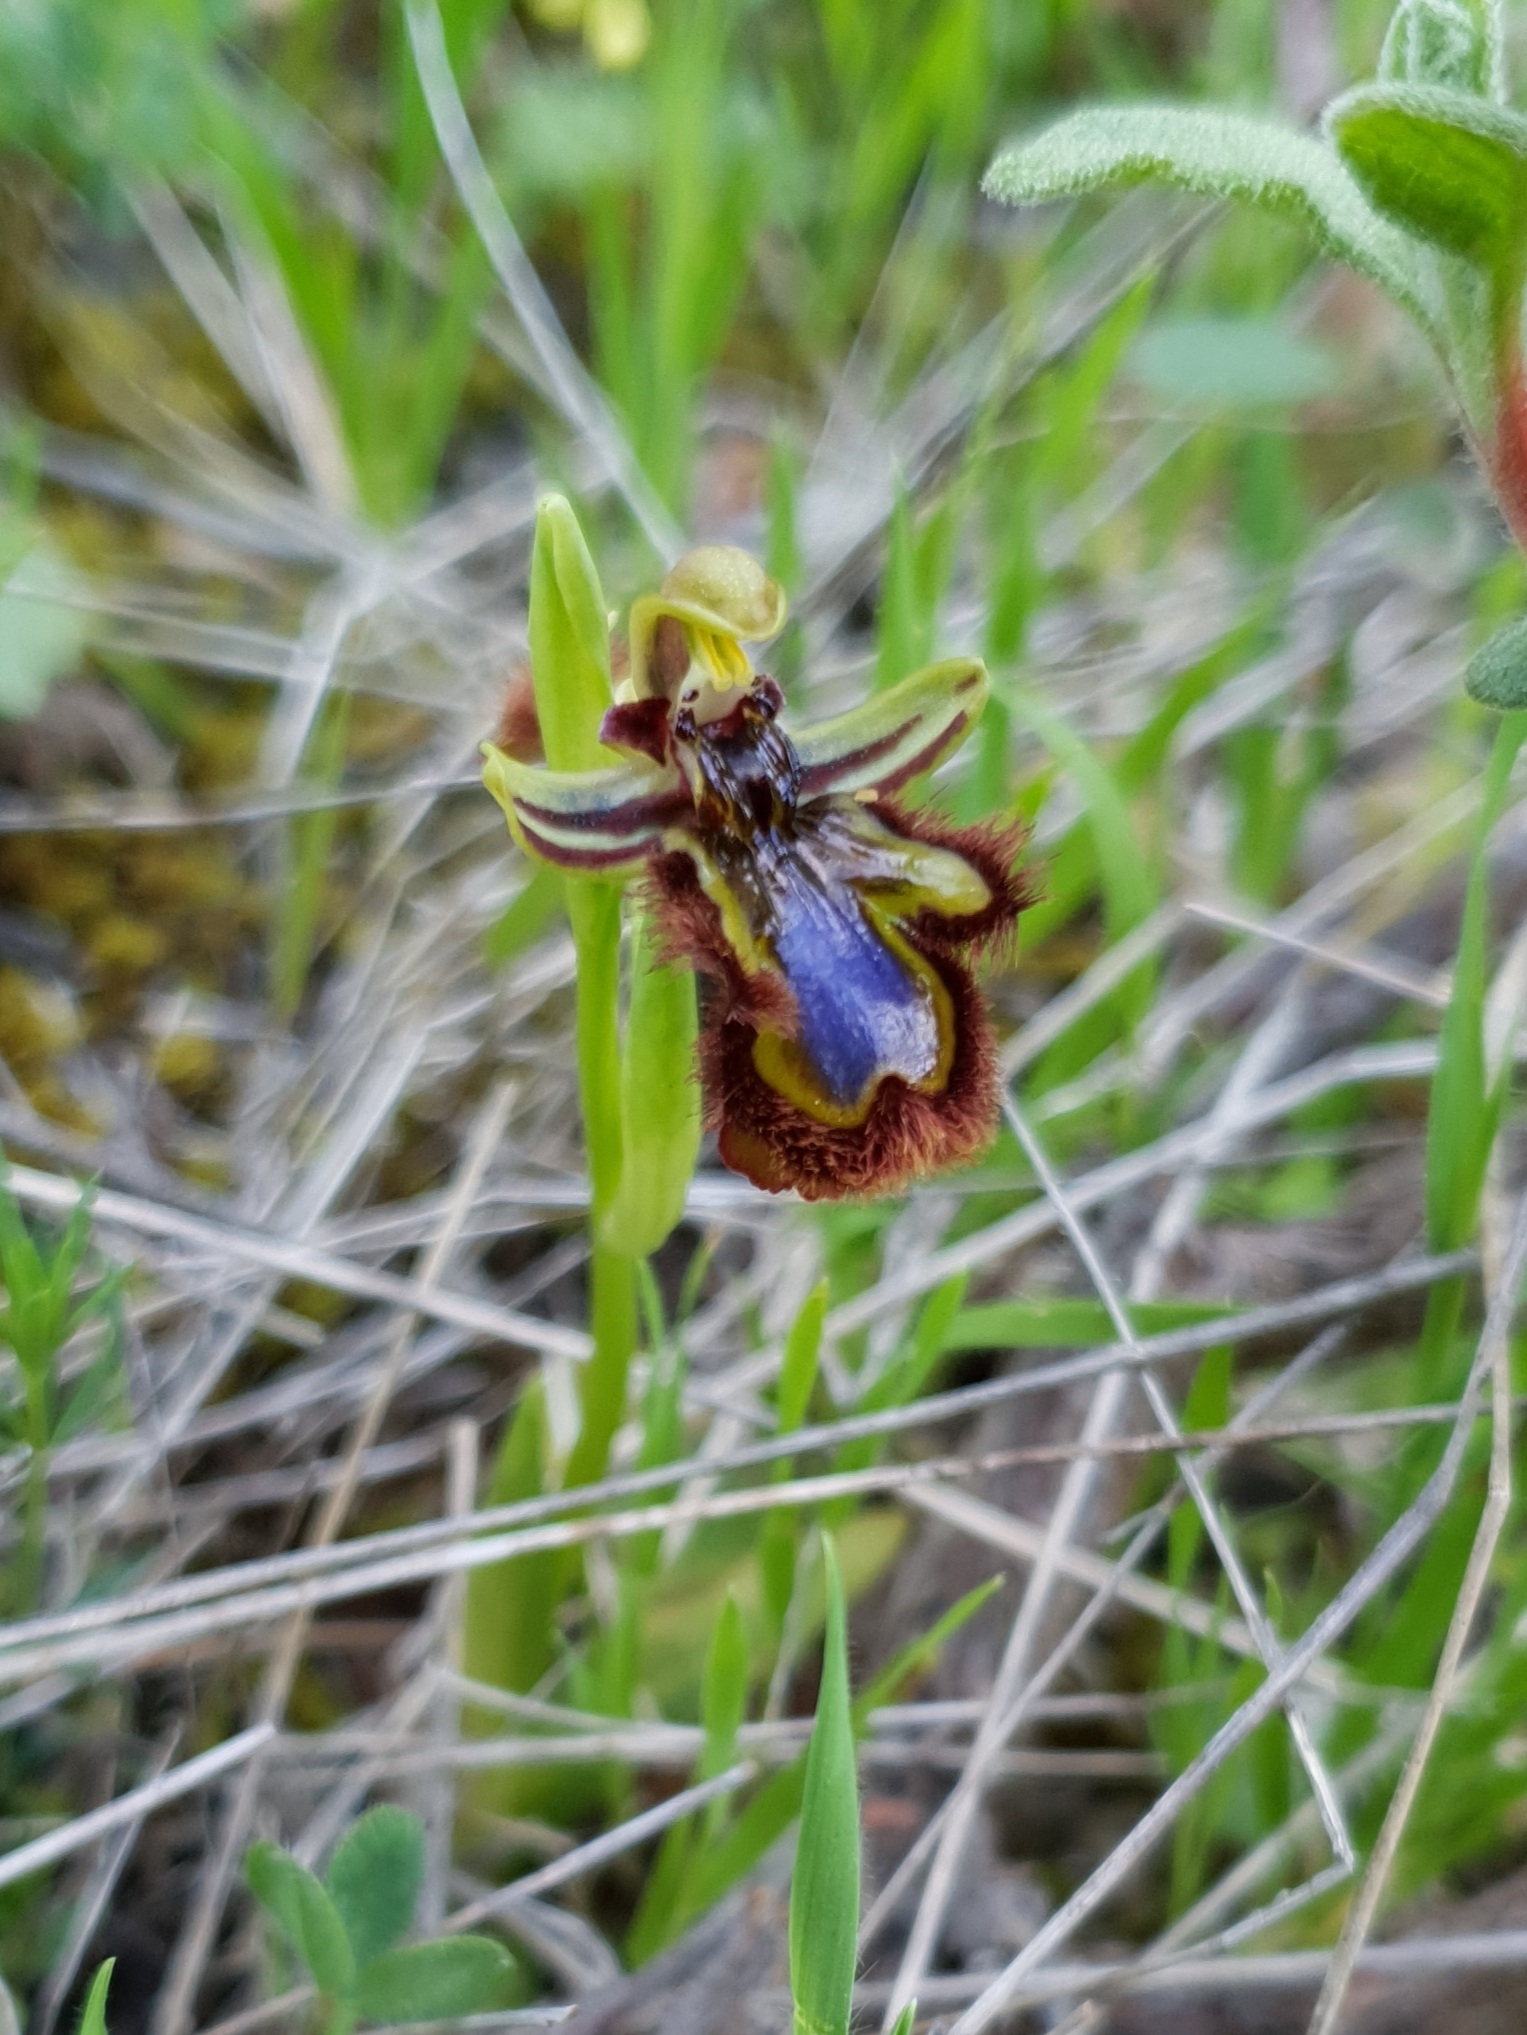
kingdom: Plantae
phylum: Tracheophyta
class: Liliopsida
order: Asparagales
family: Orchidaceae
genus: Ophrys
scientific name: Ophrys speculum
